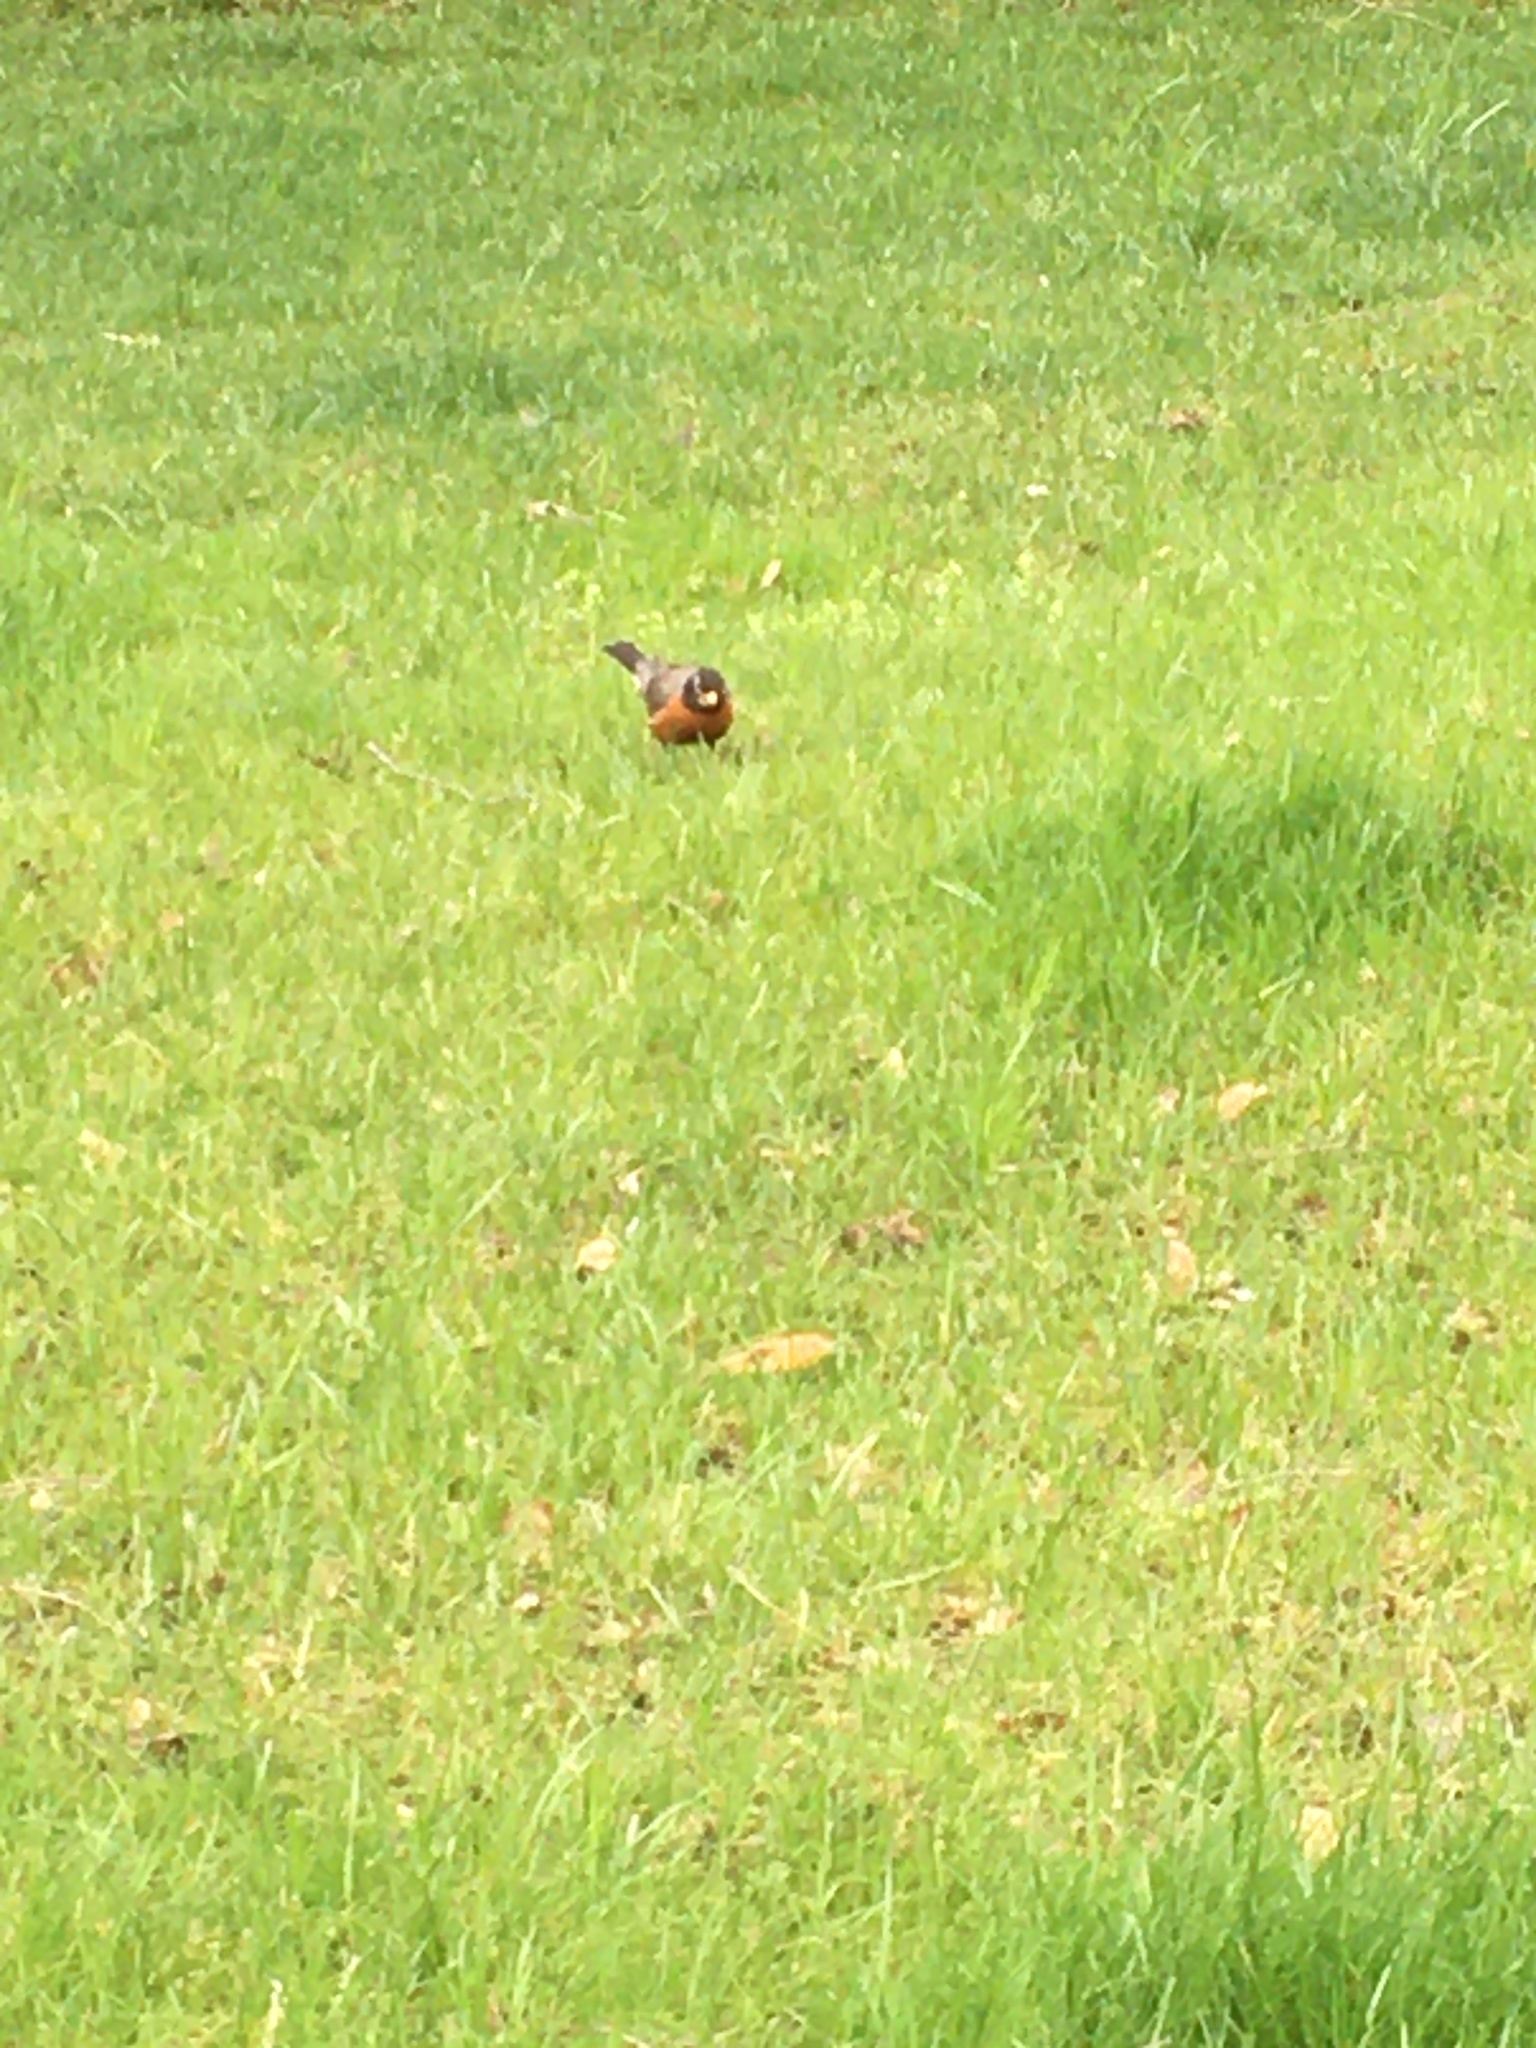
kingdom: Animalia
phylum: Chordata
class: Aves
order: Passeriformes
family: Turdidae
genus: Turdus
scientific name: Turdus migratorius
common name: American robin
